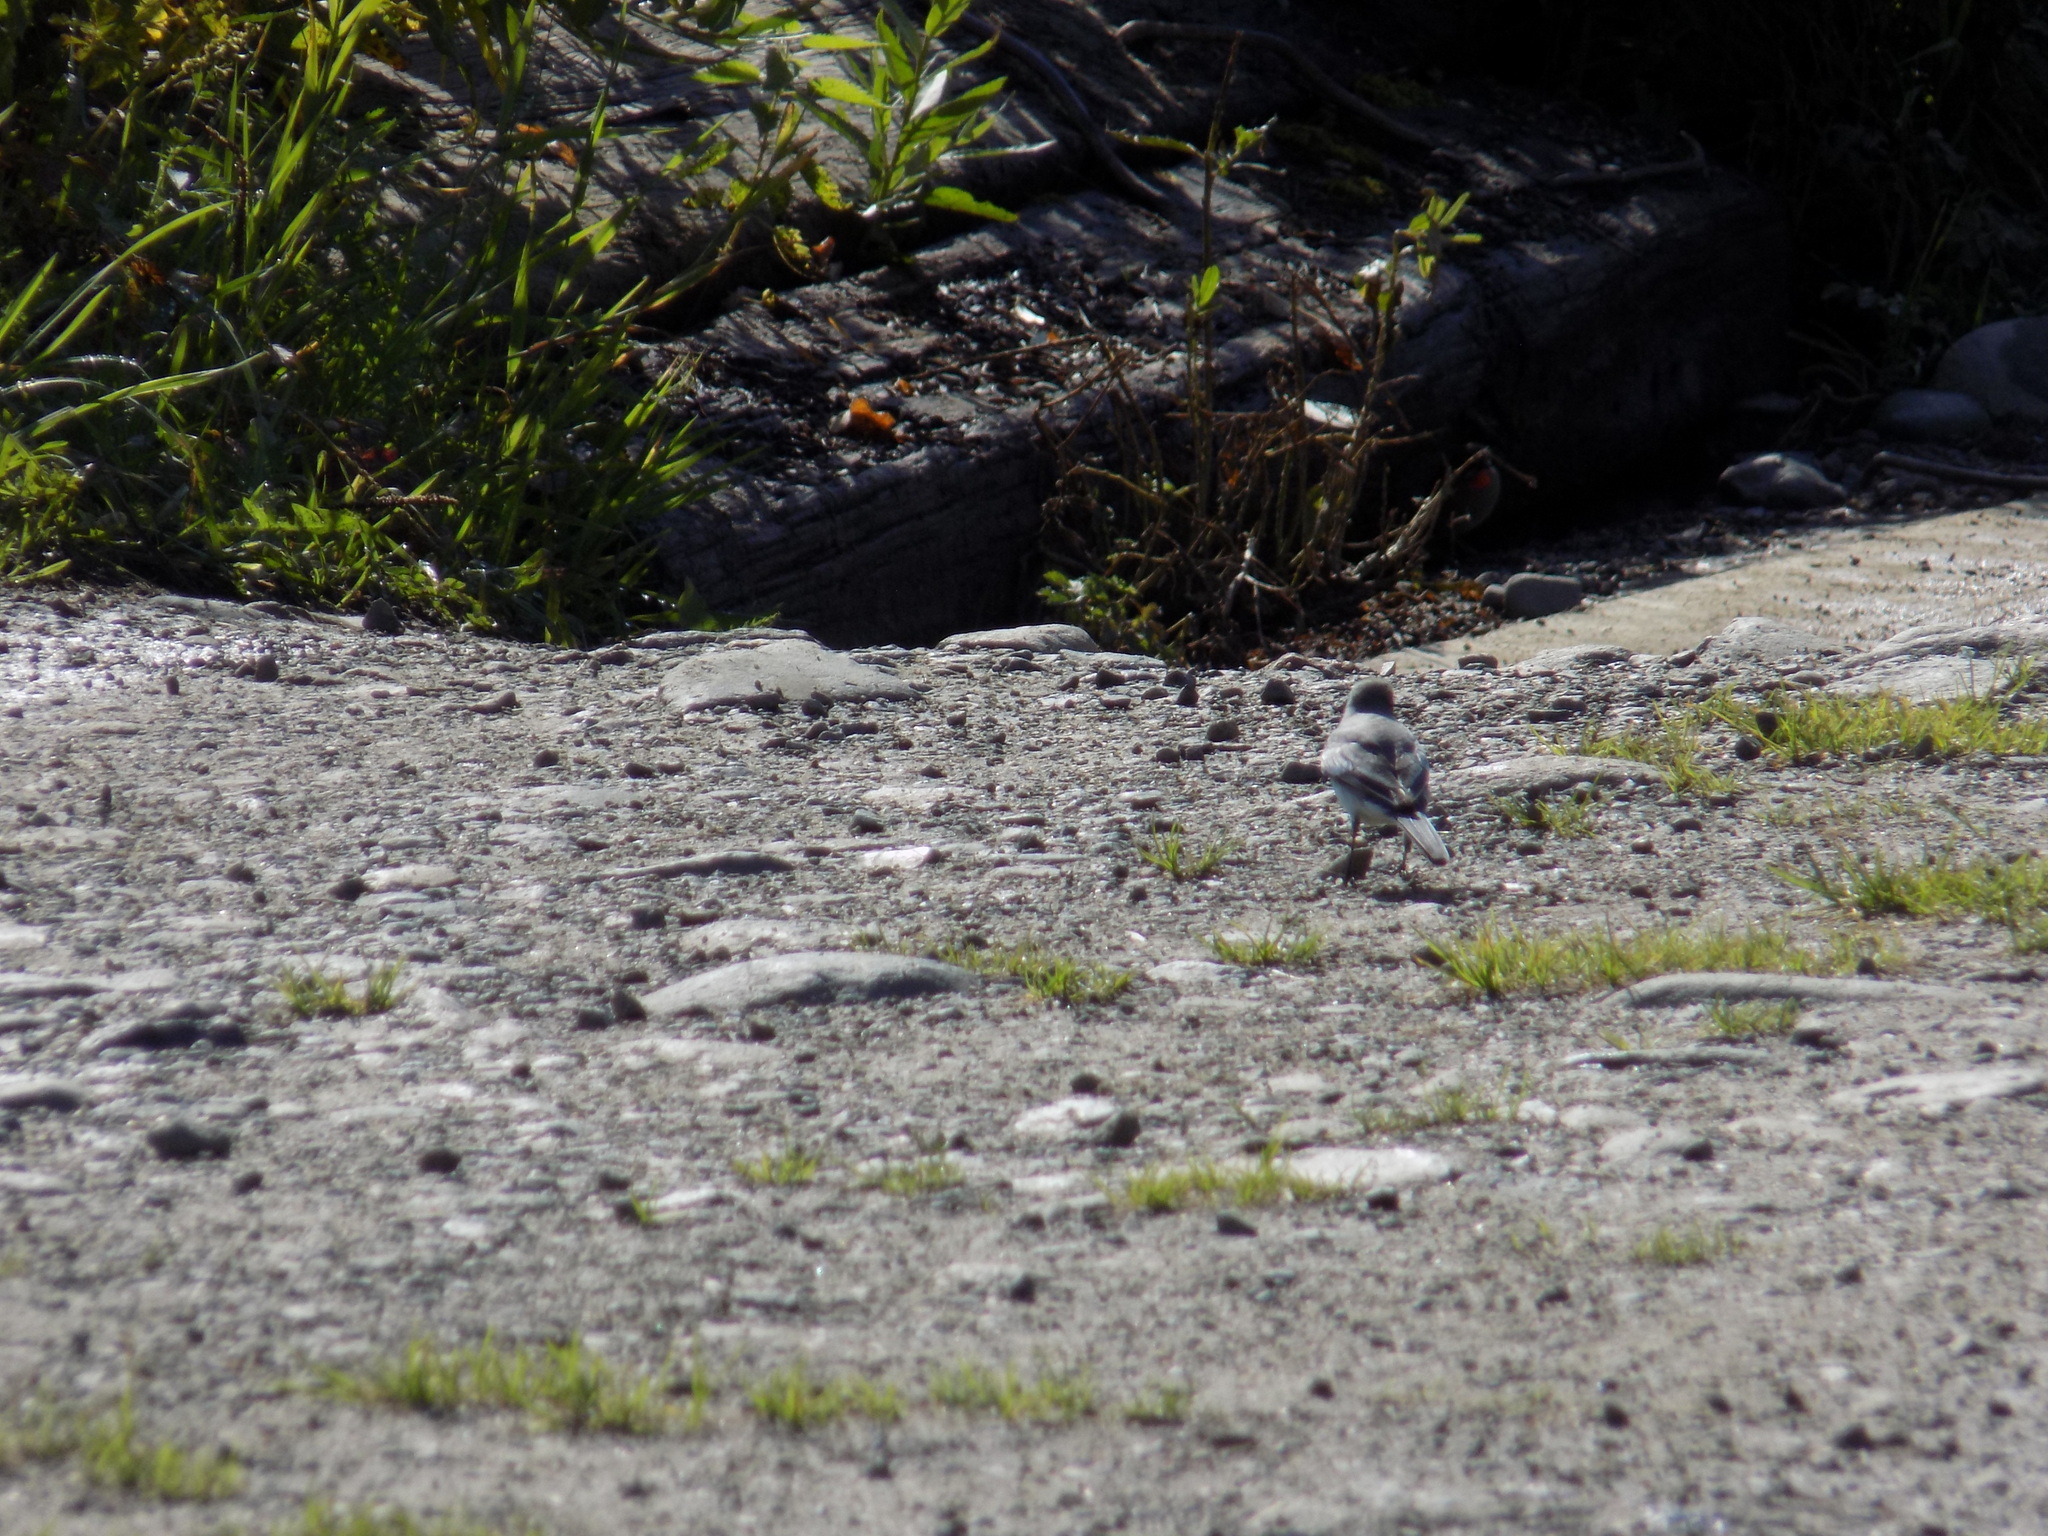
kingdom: Animalia
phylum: Chordata
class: Aves
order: Passeriformes
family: Motacillidae
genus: Motacilla
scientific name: Motacilla alba
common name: White wagtail
